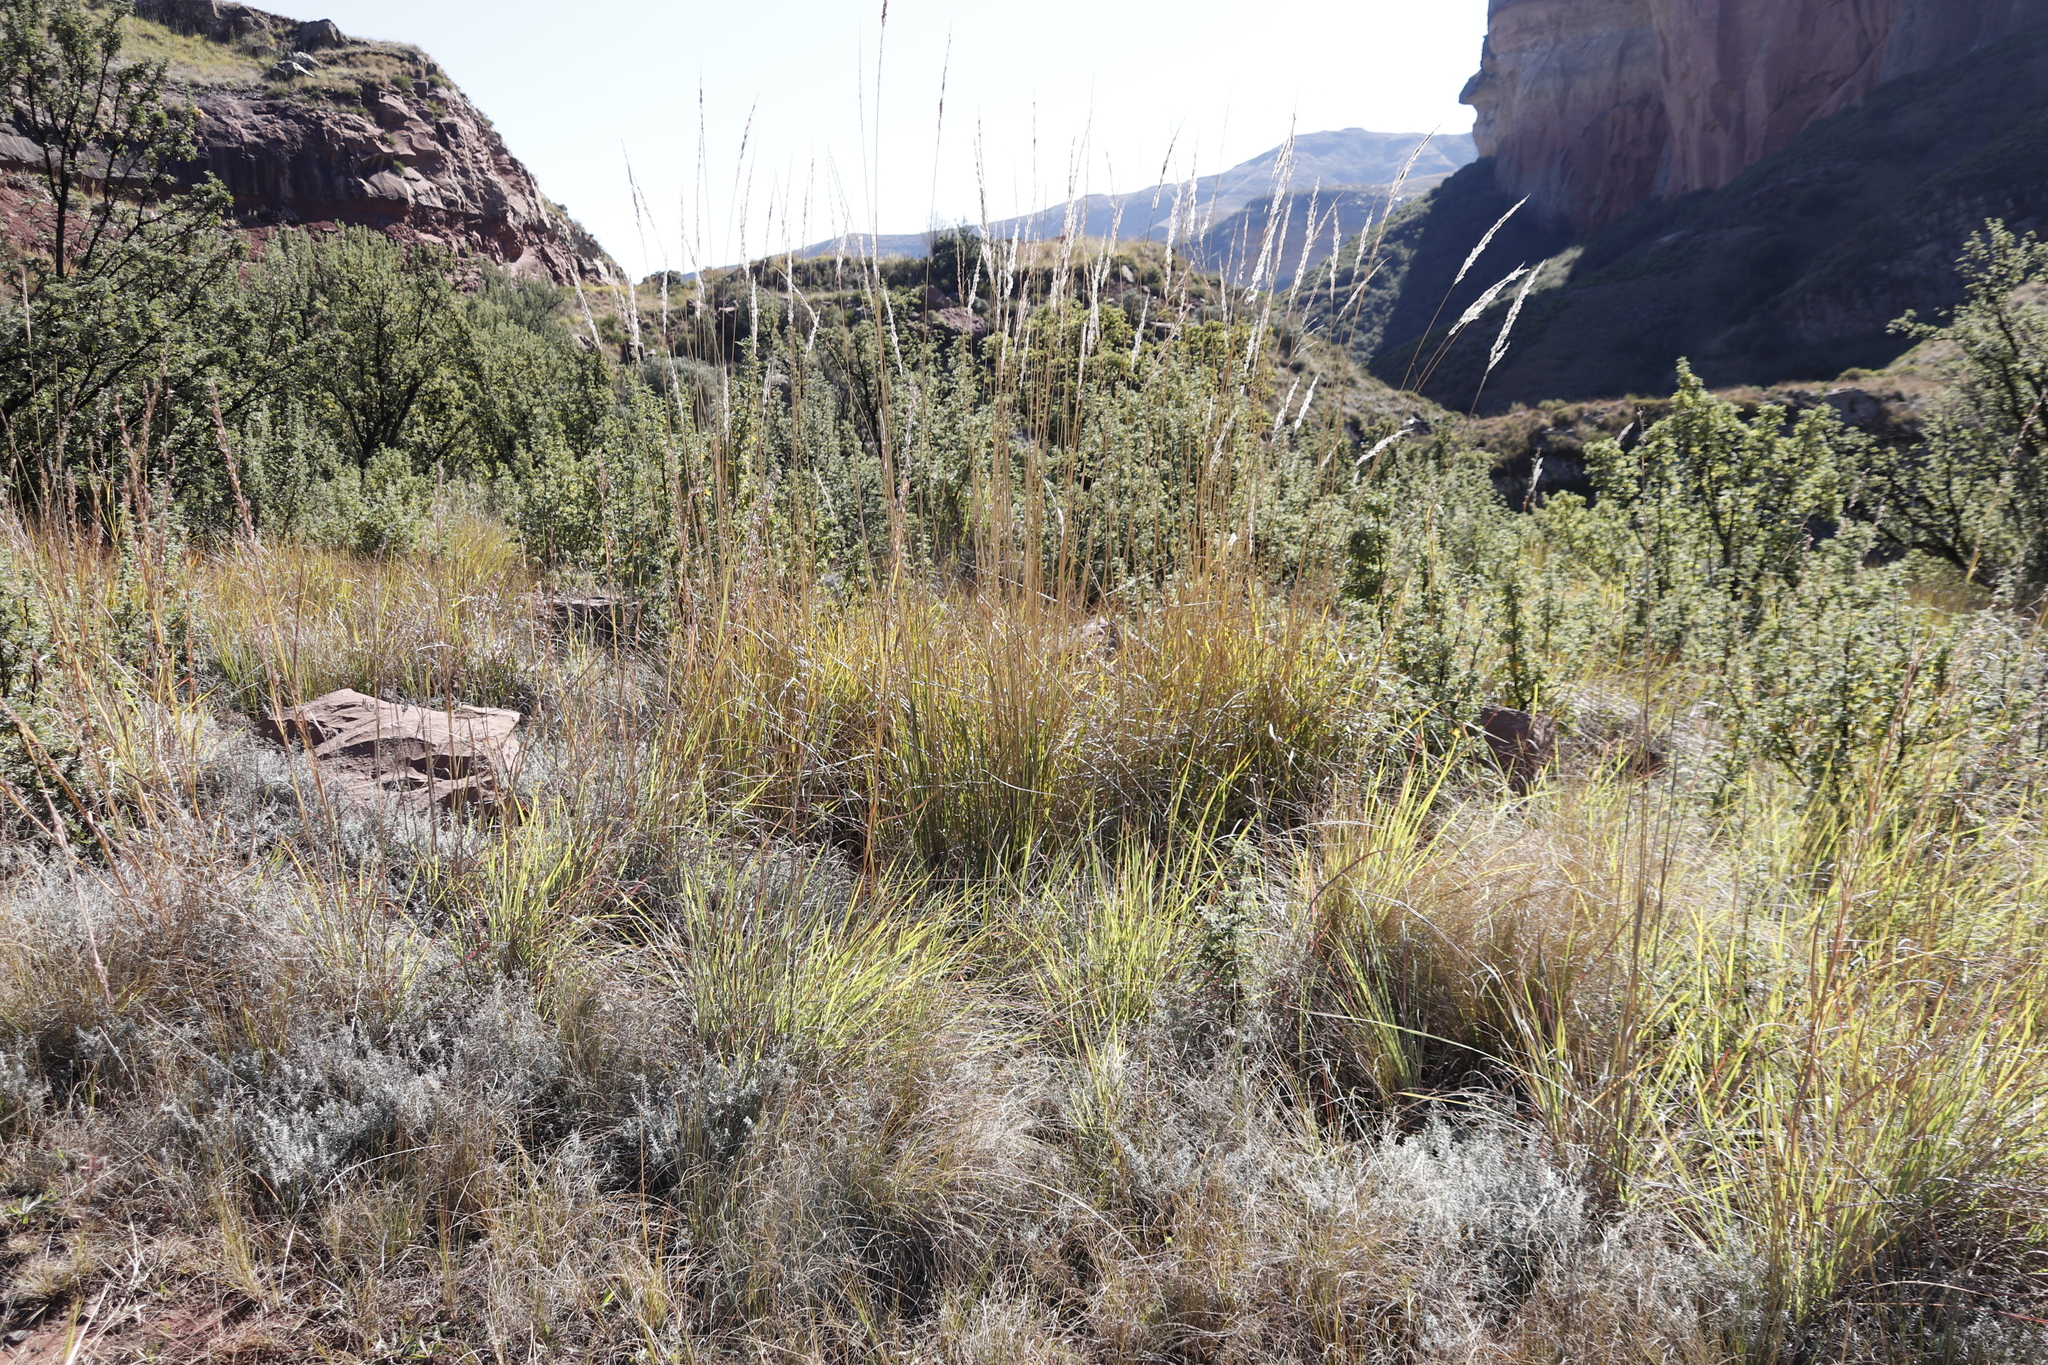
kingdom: Plantae
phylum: Tracheophyta
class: Liliopsida
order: Poales
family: Poaceae
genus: Miscanthus
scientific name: Miscanthus ecklonii
